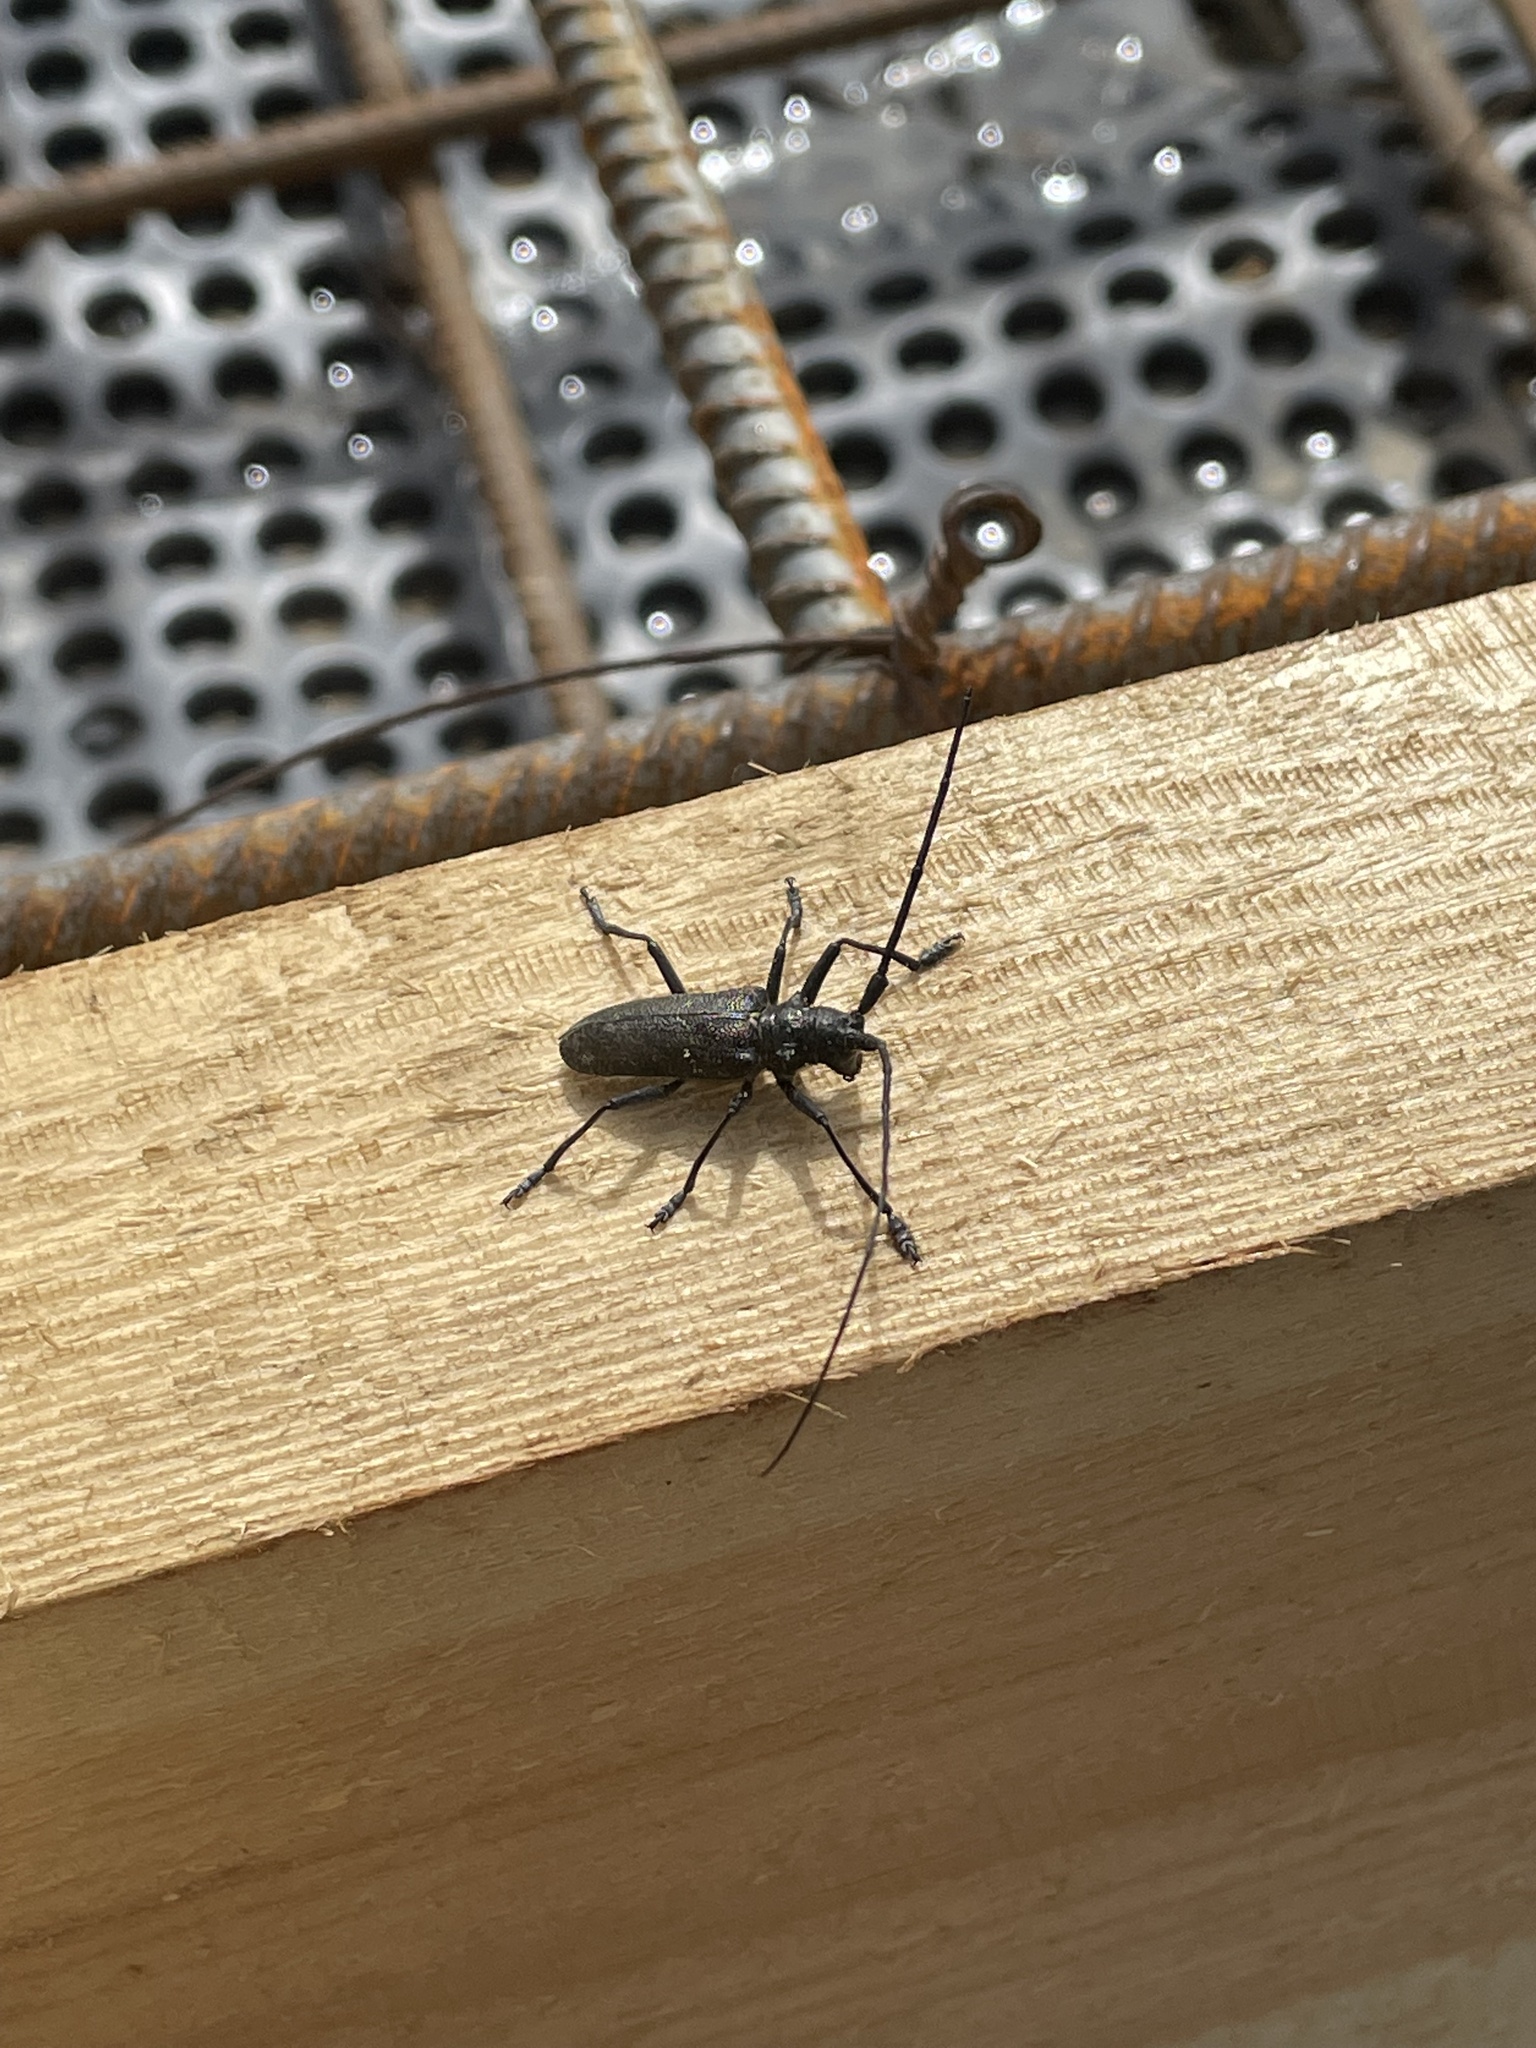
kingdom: Animalia
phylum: Arthropoda
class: Insecta
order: Coleoptera
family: Cerambycidae
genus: Monochamus
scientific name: Monochamus sutor
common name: Pine sawyer
